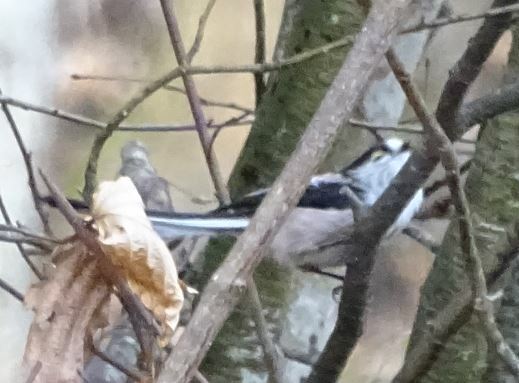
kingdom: Animalia
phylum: Chordata
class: Aves
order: Passeriformes
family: Aegithalidae
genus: Aegithalos
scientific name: Aegithalos caudatus
